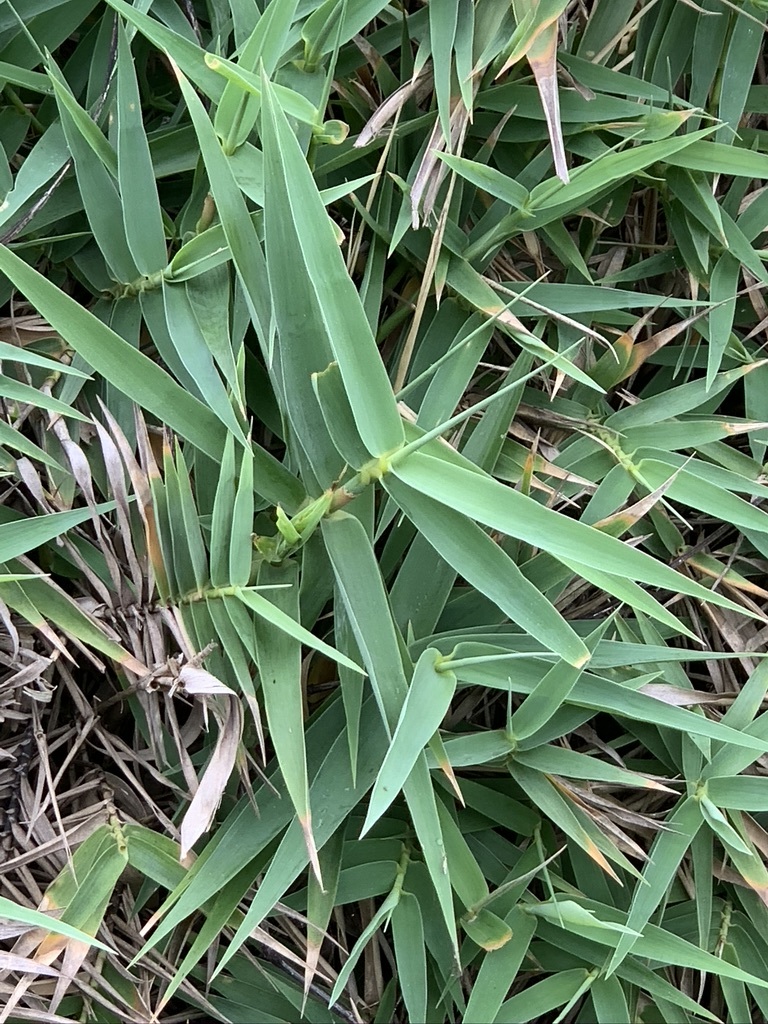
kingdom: Plantae
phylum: Tracheophyta
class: Liliopsida
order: Poales
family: Poaceae
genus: Arundo
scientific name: Arundo formosana
